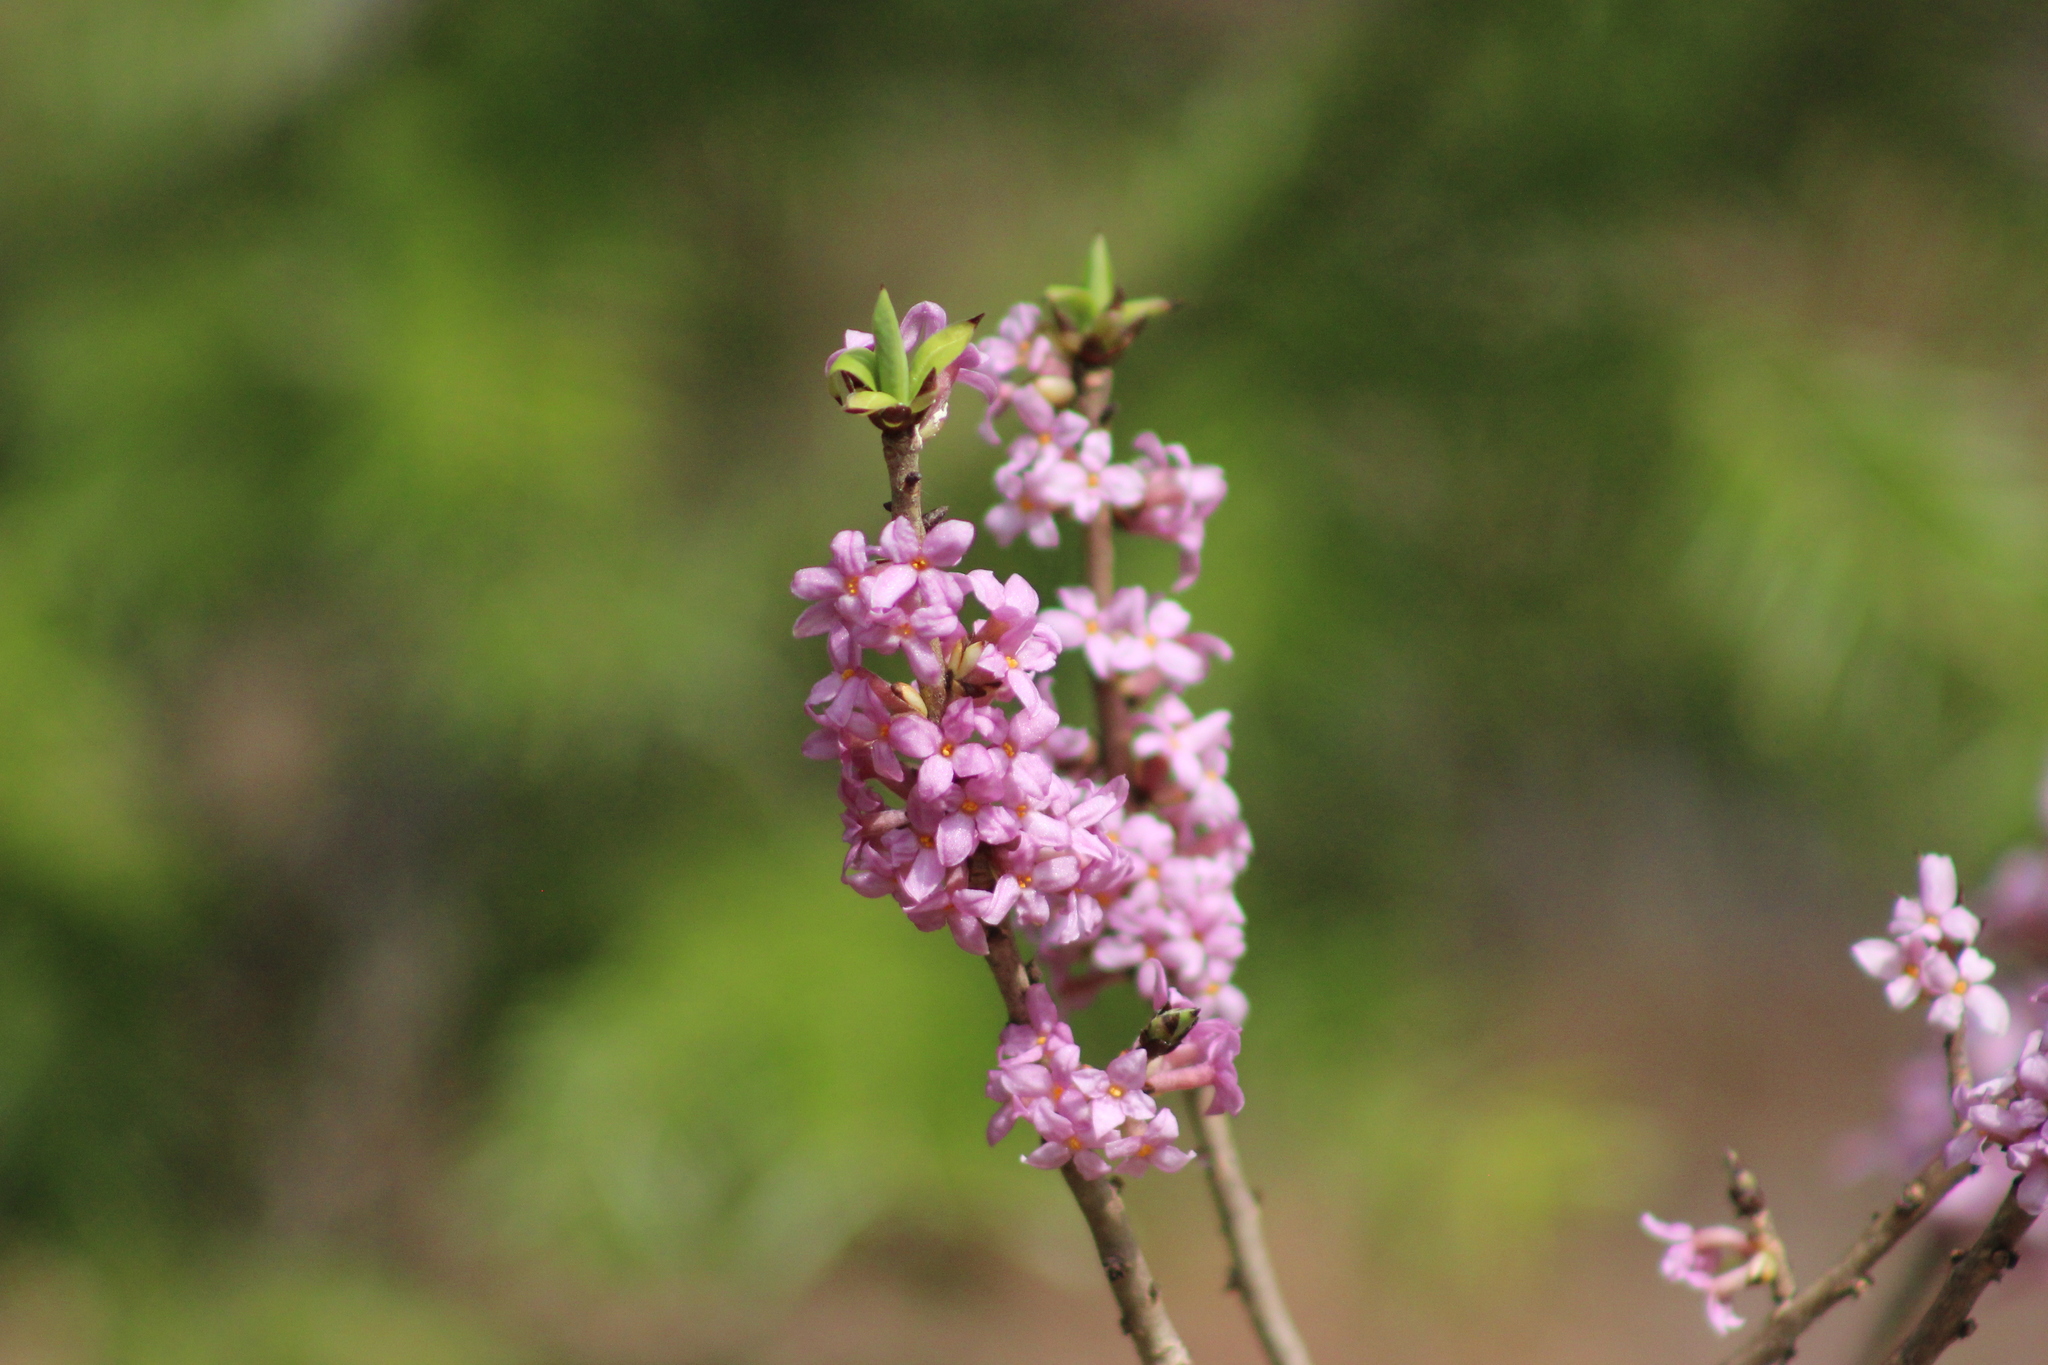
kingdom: Plantae
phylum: Tracheophyta
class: Magnoliopsida
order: Malvales
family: Thymelaeaceae
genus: Daphne
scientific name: Daphne mezereum
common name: Mezereon
